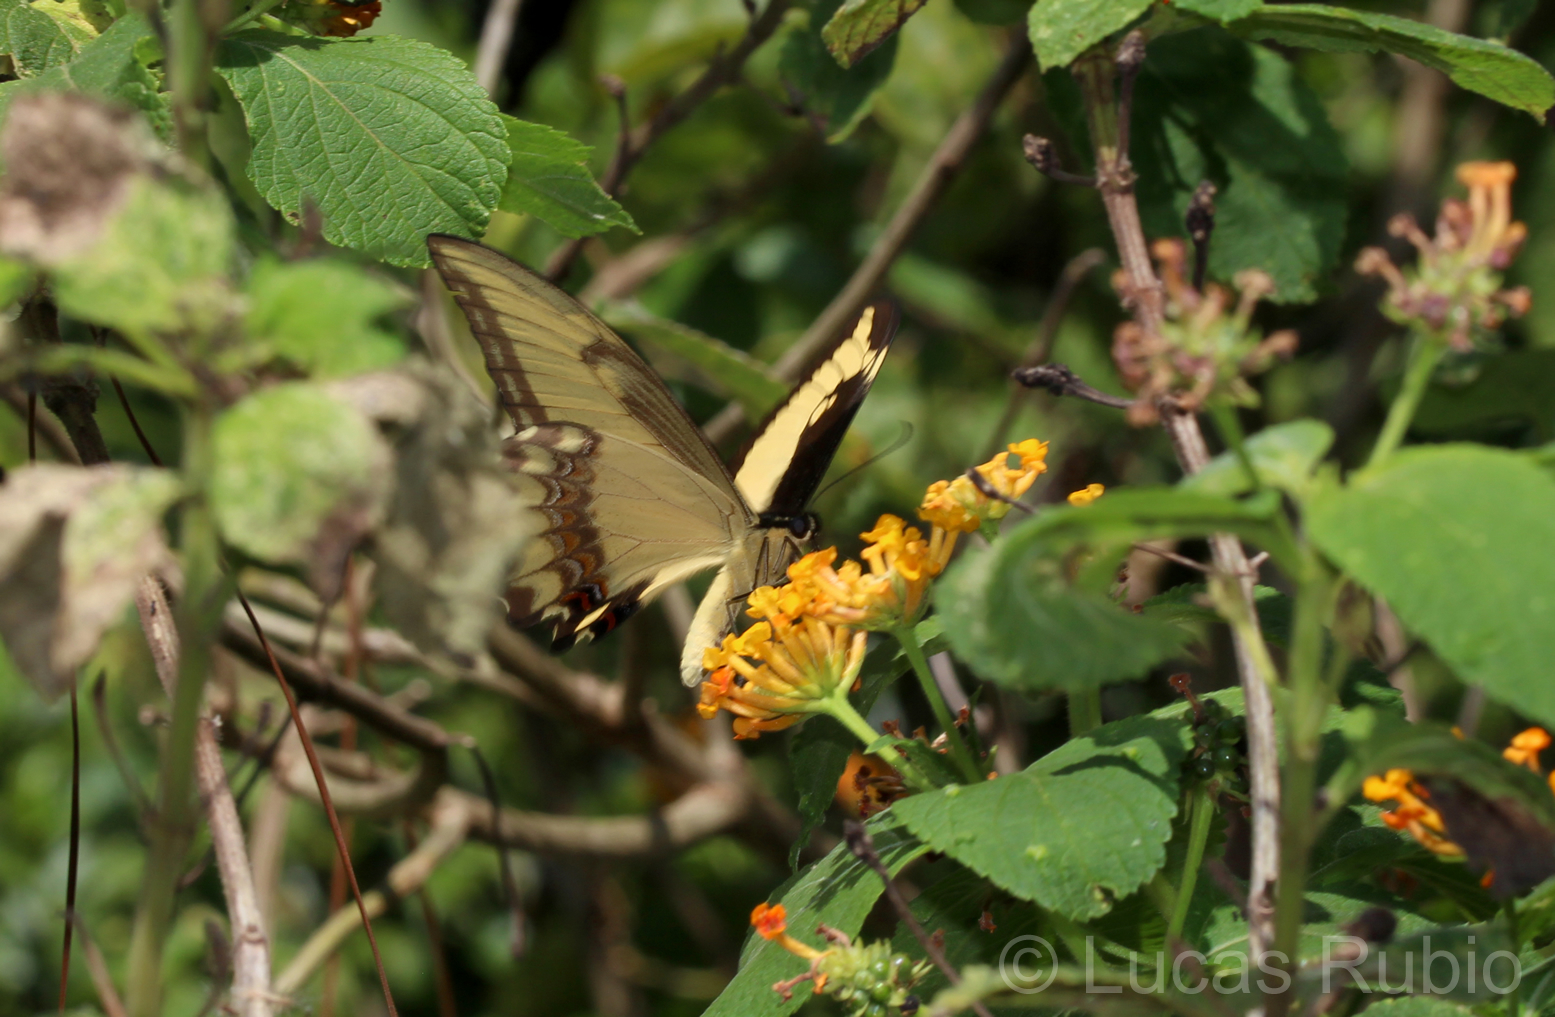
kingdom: Animalia
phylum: Arthropoda
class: Insecta
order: Lepidoptera
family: Papilionidae
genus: Papilio
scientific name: Papilio androgeus
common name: Androgeus swallowtail
